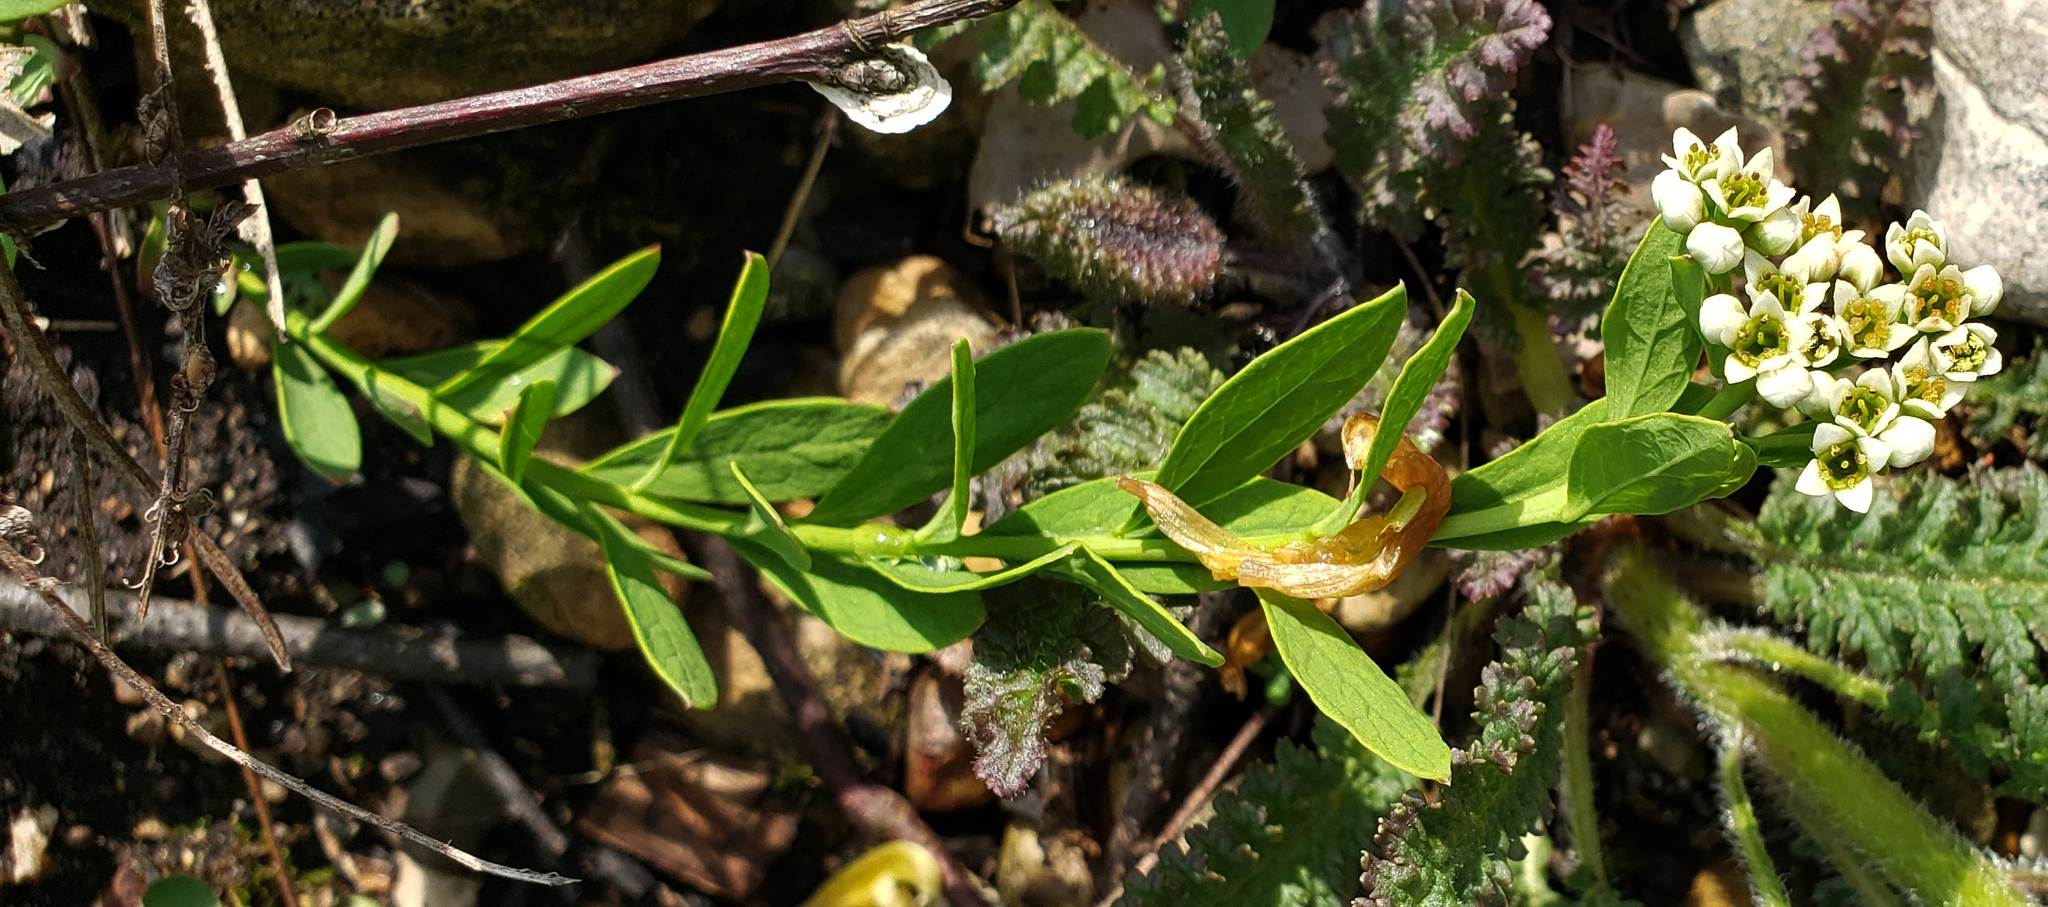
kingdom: Plantae
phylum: Tracheophyta
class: Magnoliopsida
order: Santalales
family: Comandraceae
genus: Comandra
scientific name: Comandra umbellata
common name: Bastard toadflax
